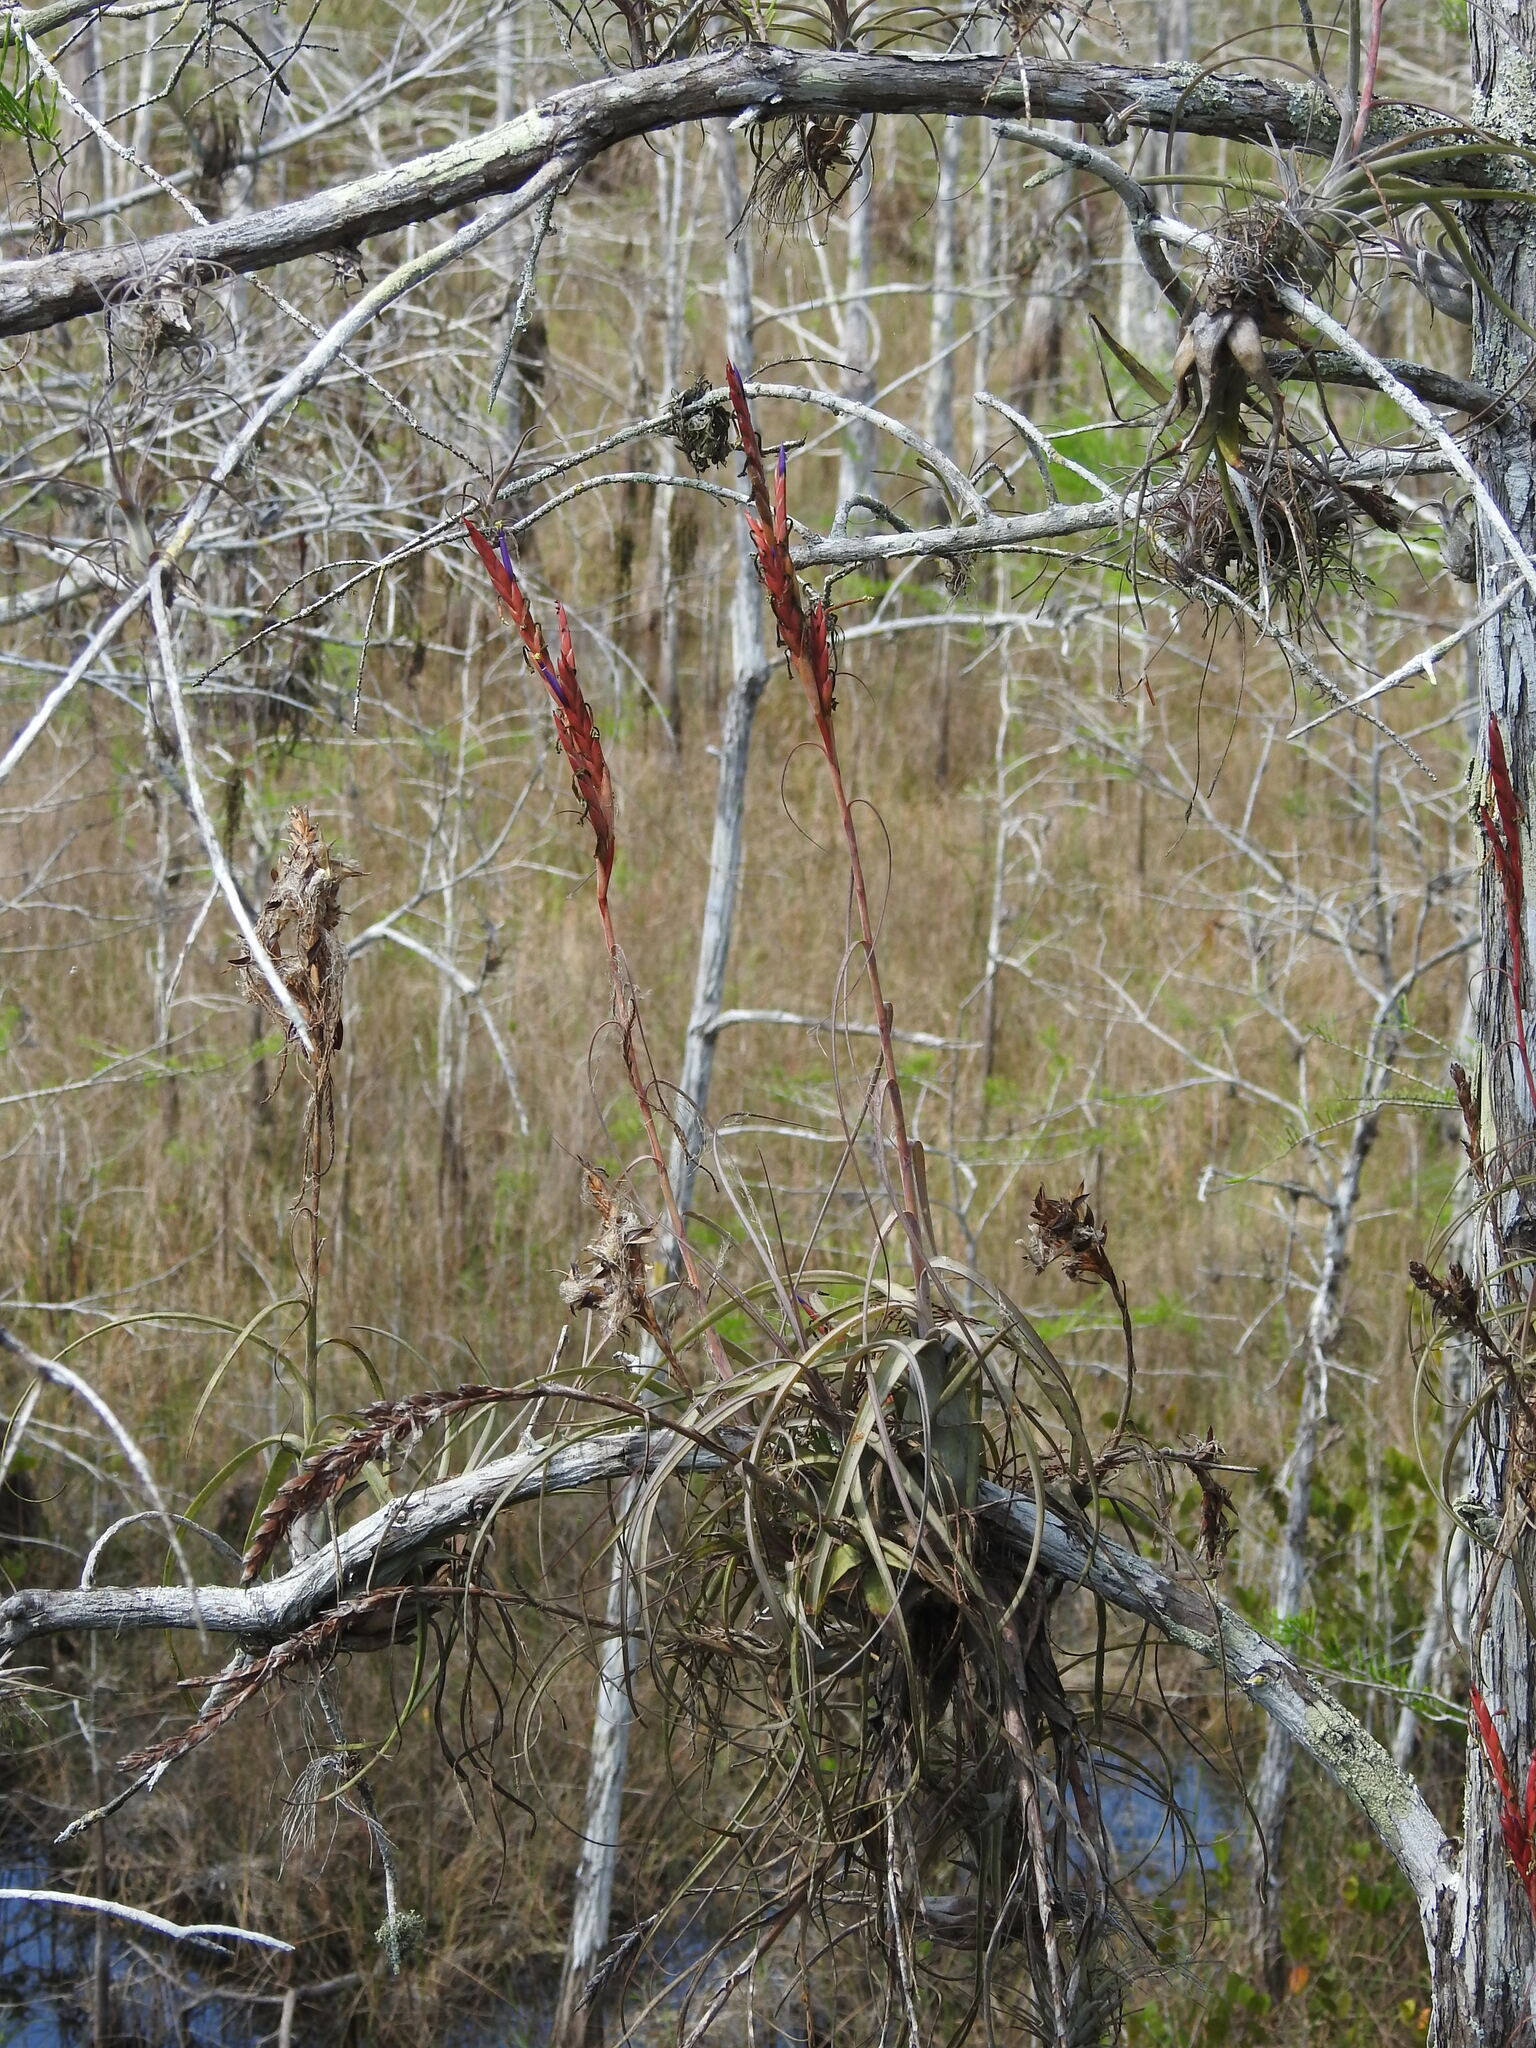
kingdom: Plantae
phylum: Tracheophyta
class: Liliopsida
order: Poales
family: Bromeliaceae
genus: Tillandsia
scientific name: Tillandsia balbisiana
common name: Northern needleleaf
